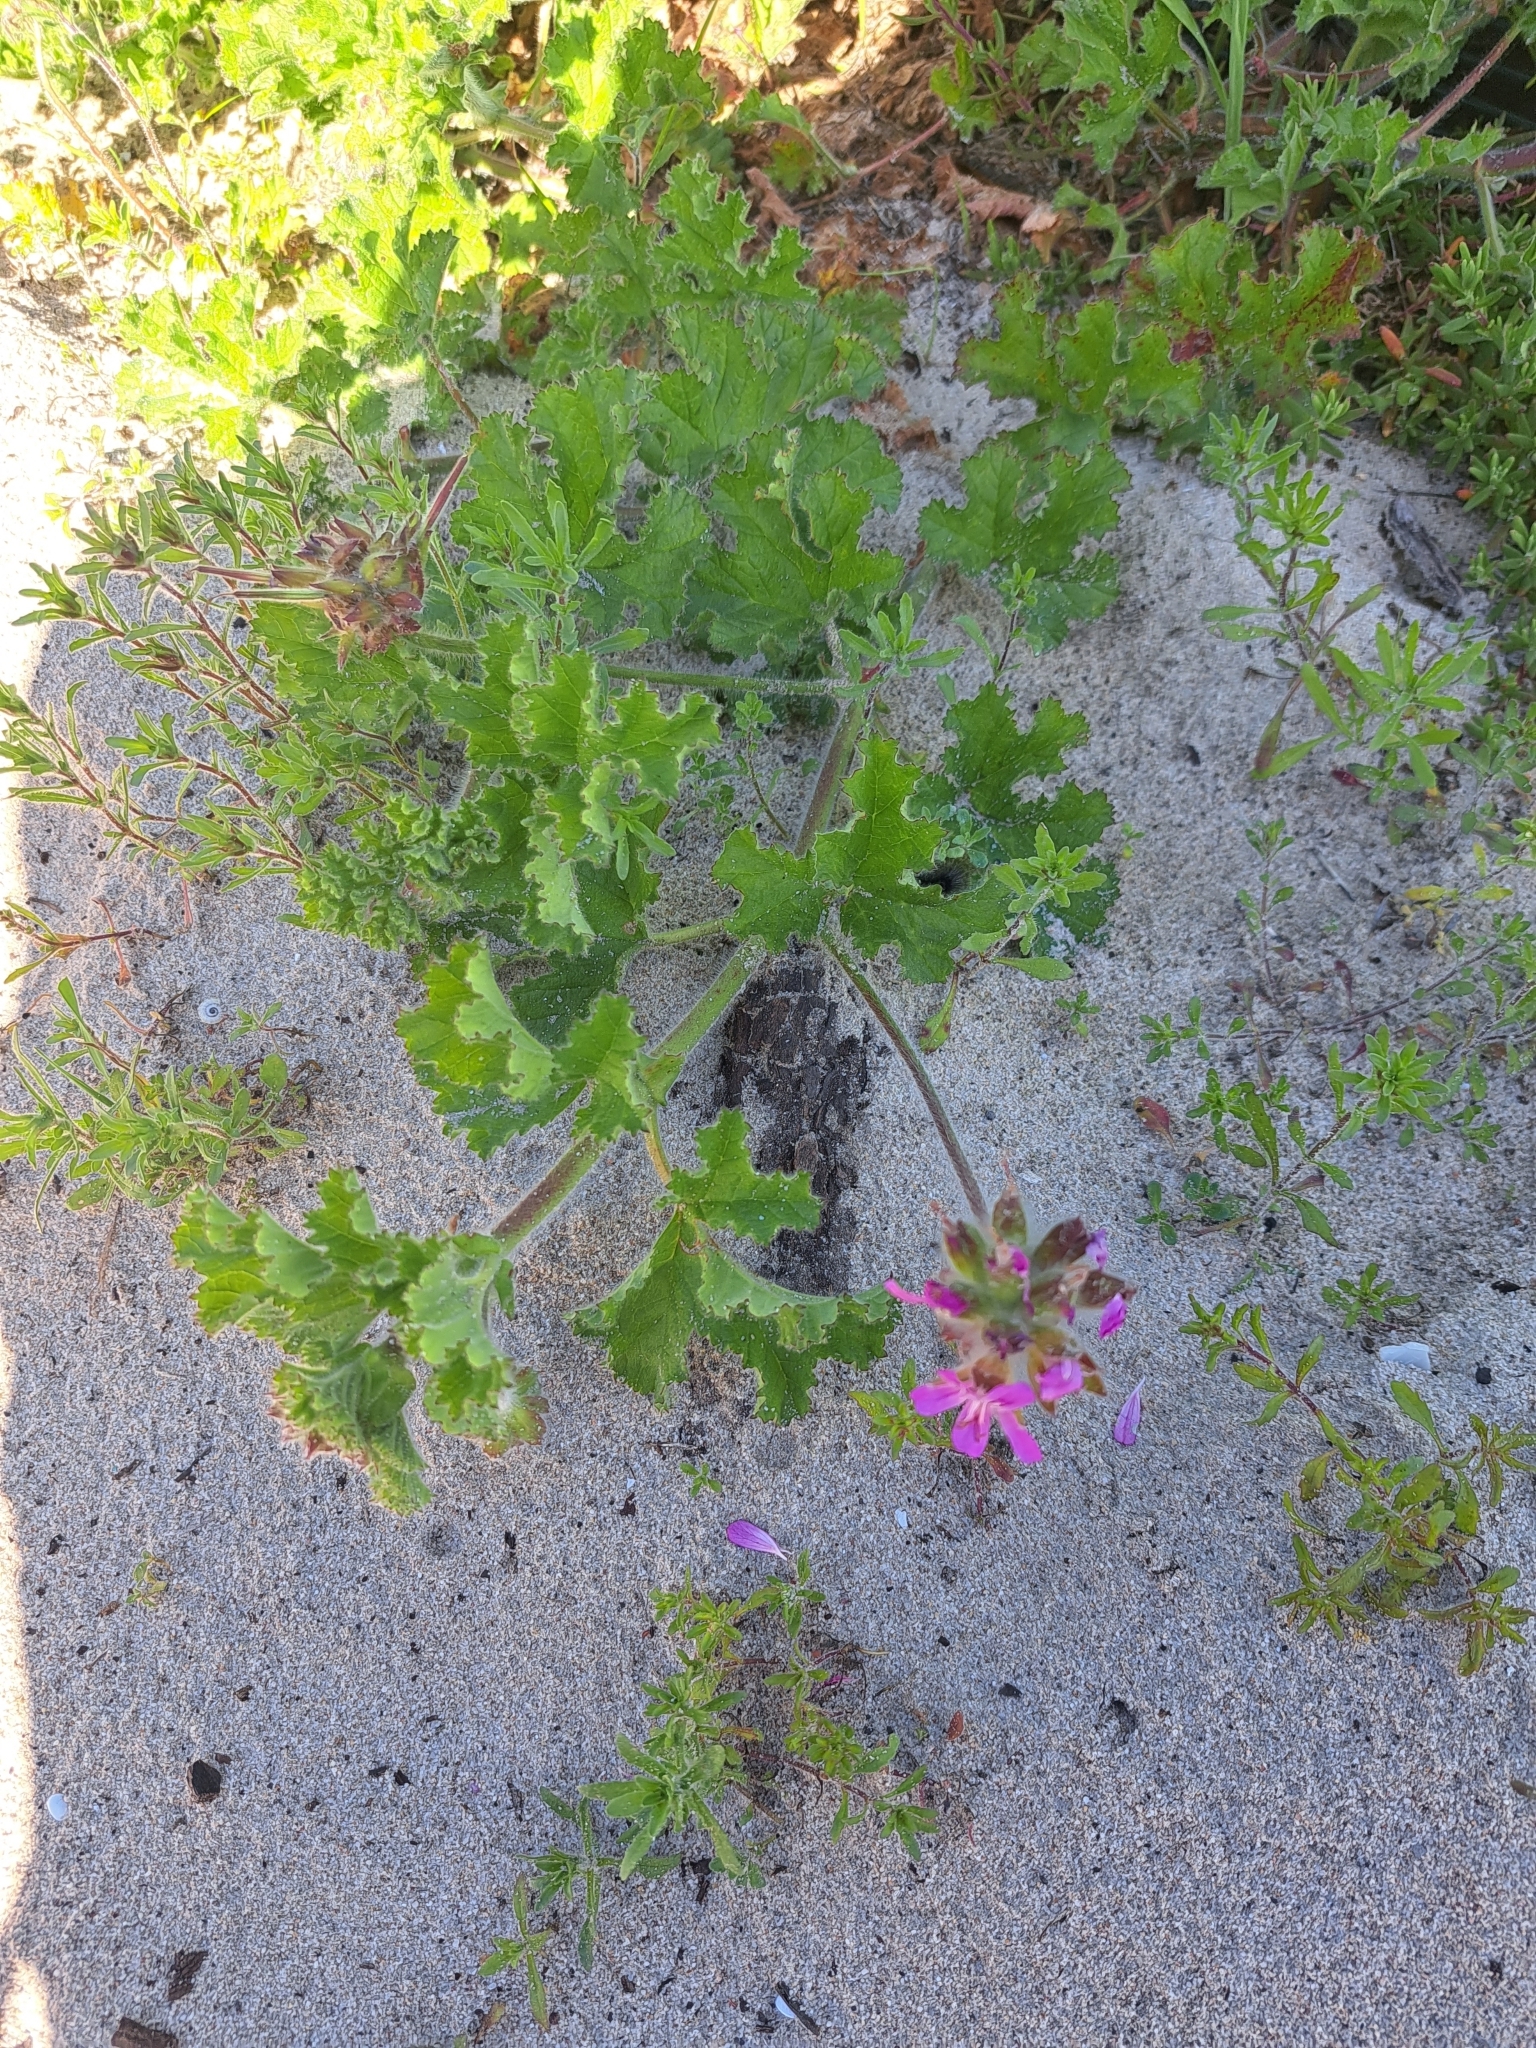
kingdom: Plantae
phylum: Tracheophyta
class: Magnoliopsida
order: Geraniales
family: Geraniaceae
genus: Pelargonium
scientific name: Pelargonium capitatum
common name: Rose scented geranium
